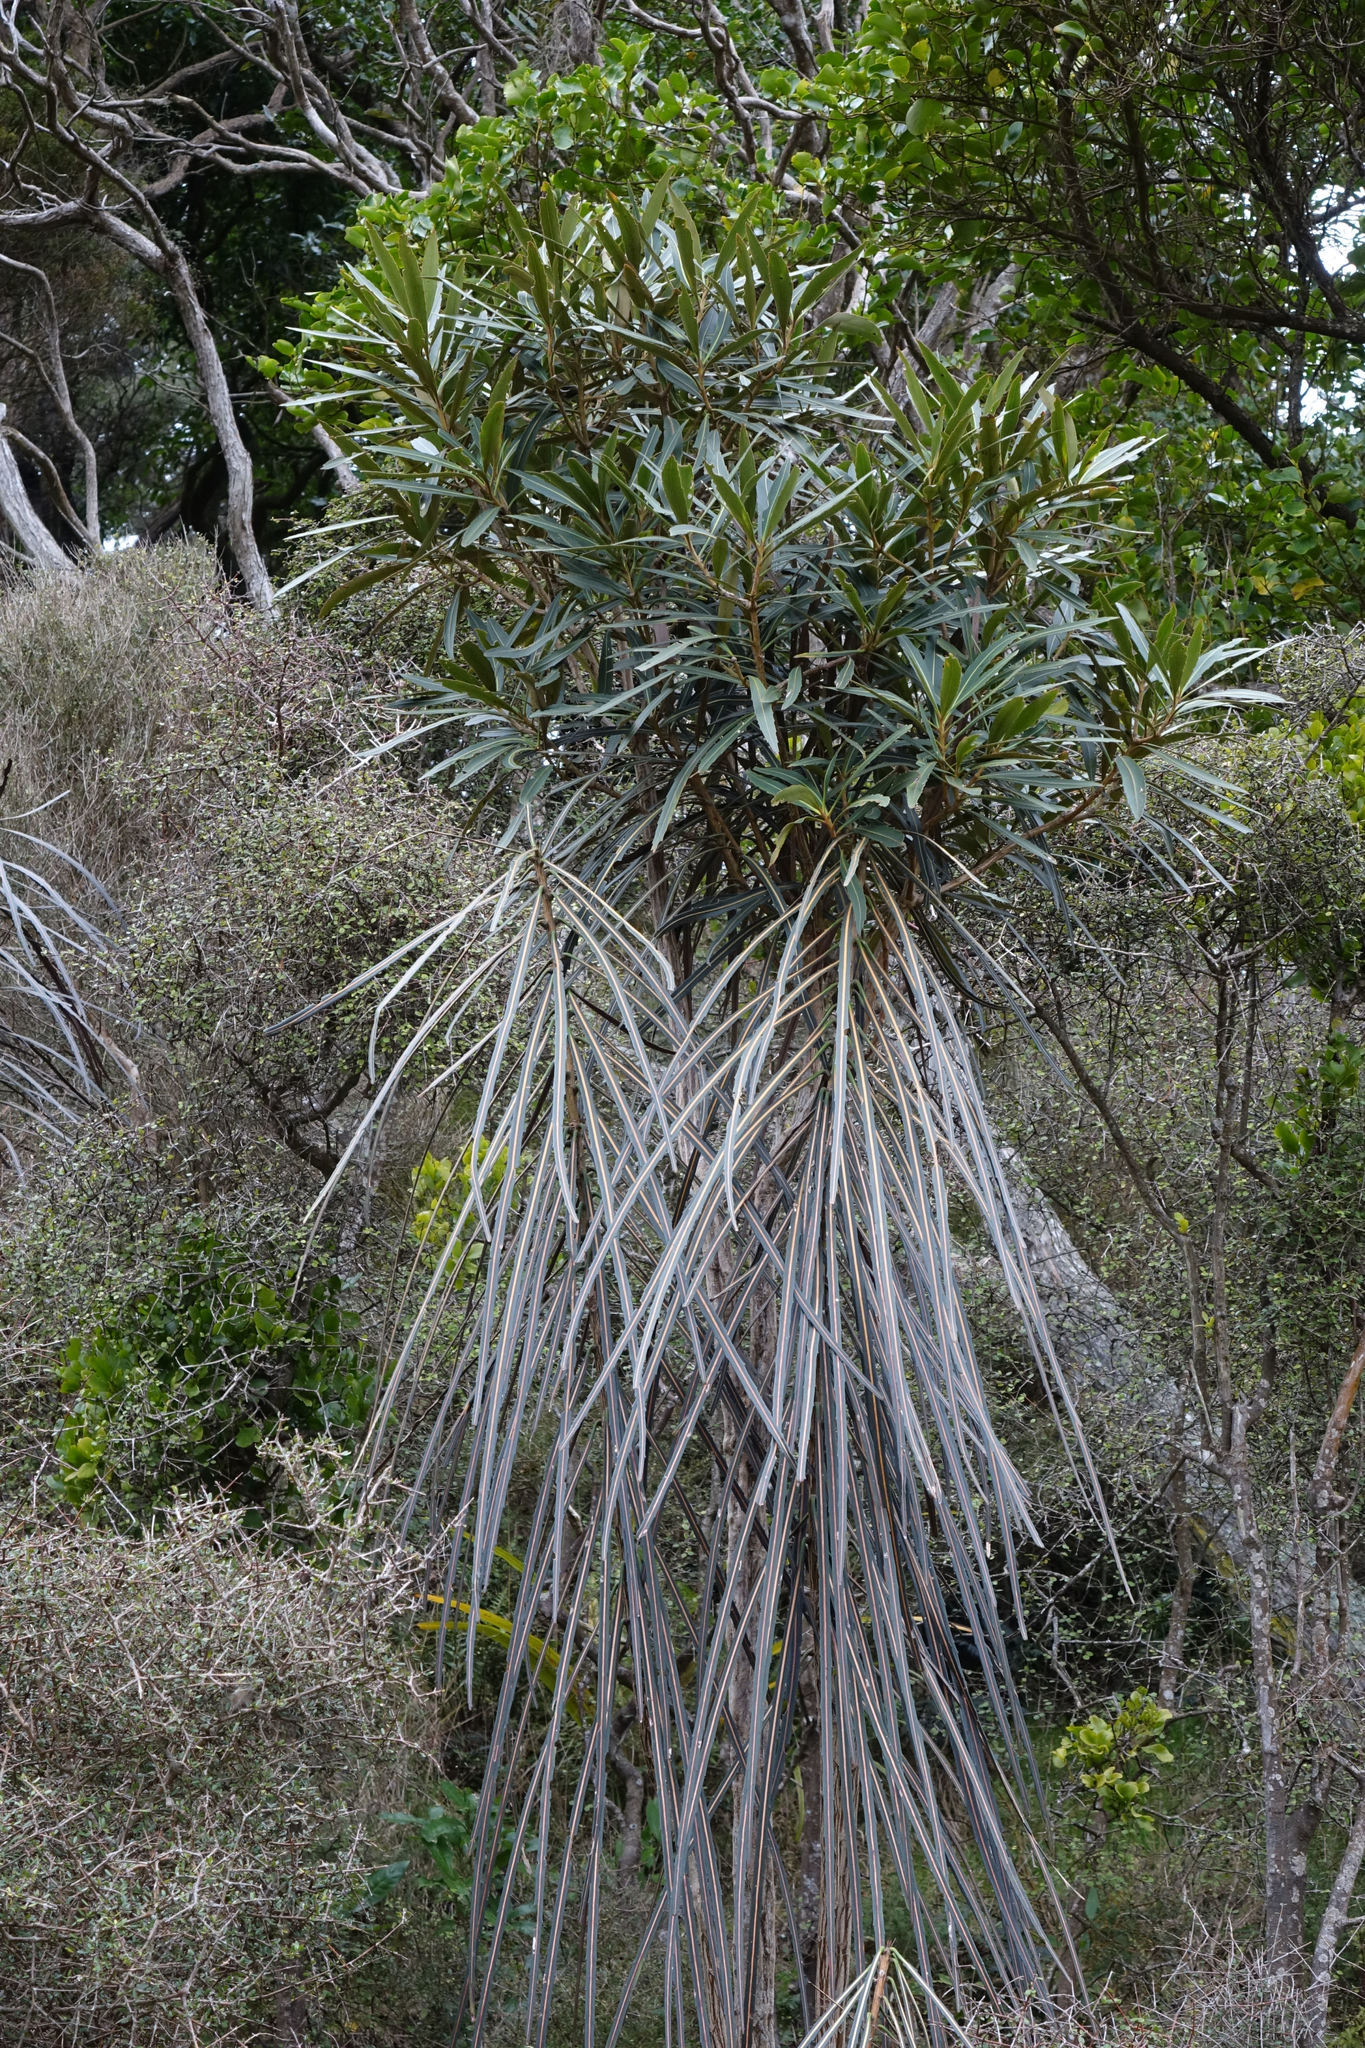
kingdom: Plantae
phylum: Tracheophyta
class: Magnoliopsida
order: Apiales
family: Araliaceae
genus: Pseudopanax
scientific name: Pseudopanax crassifolius
